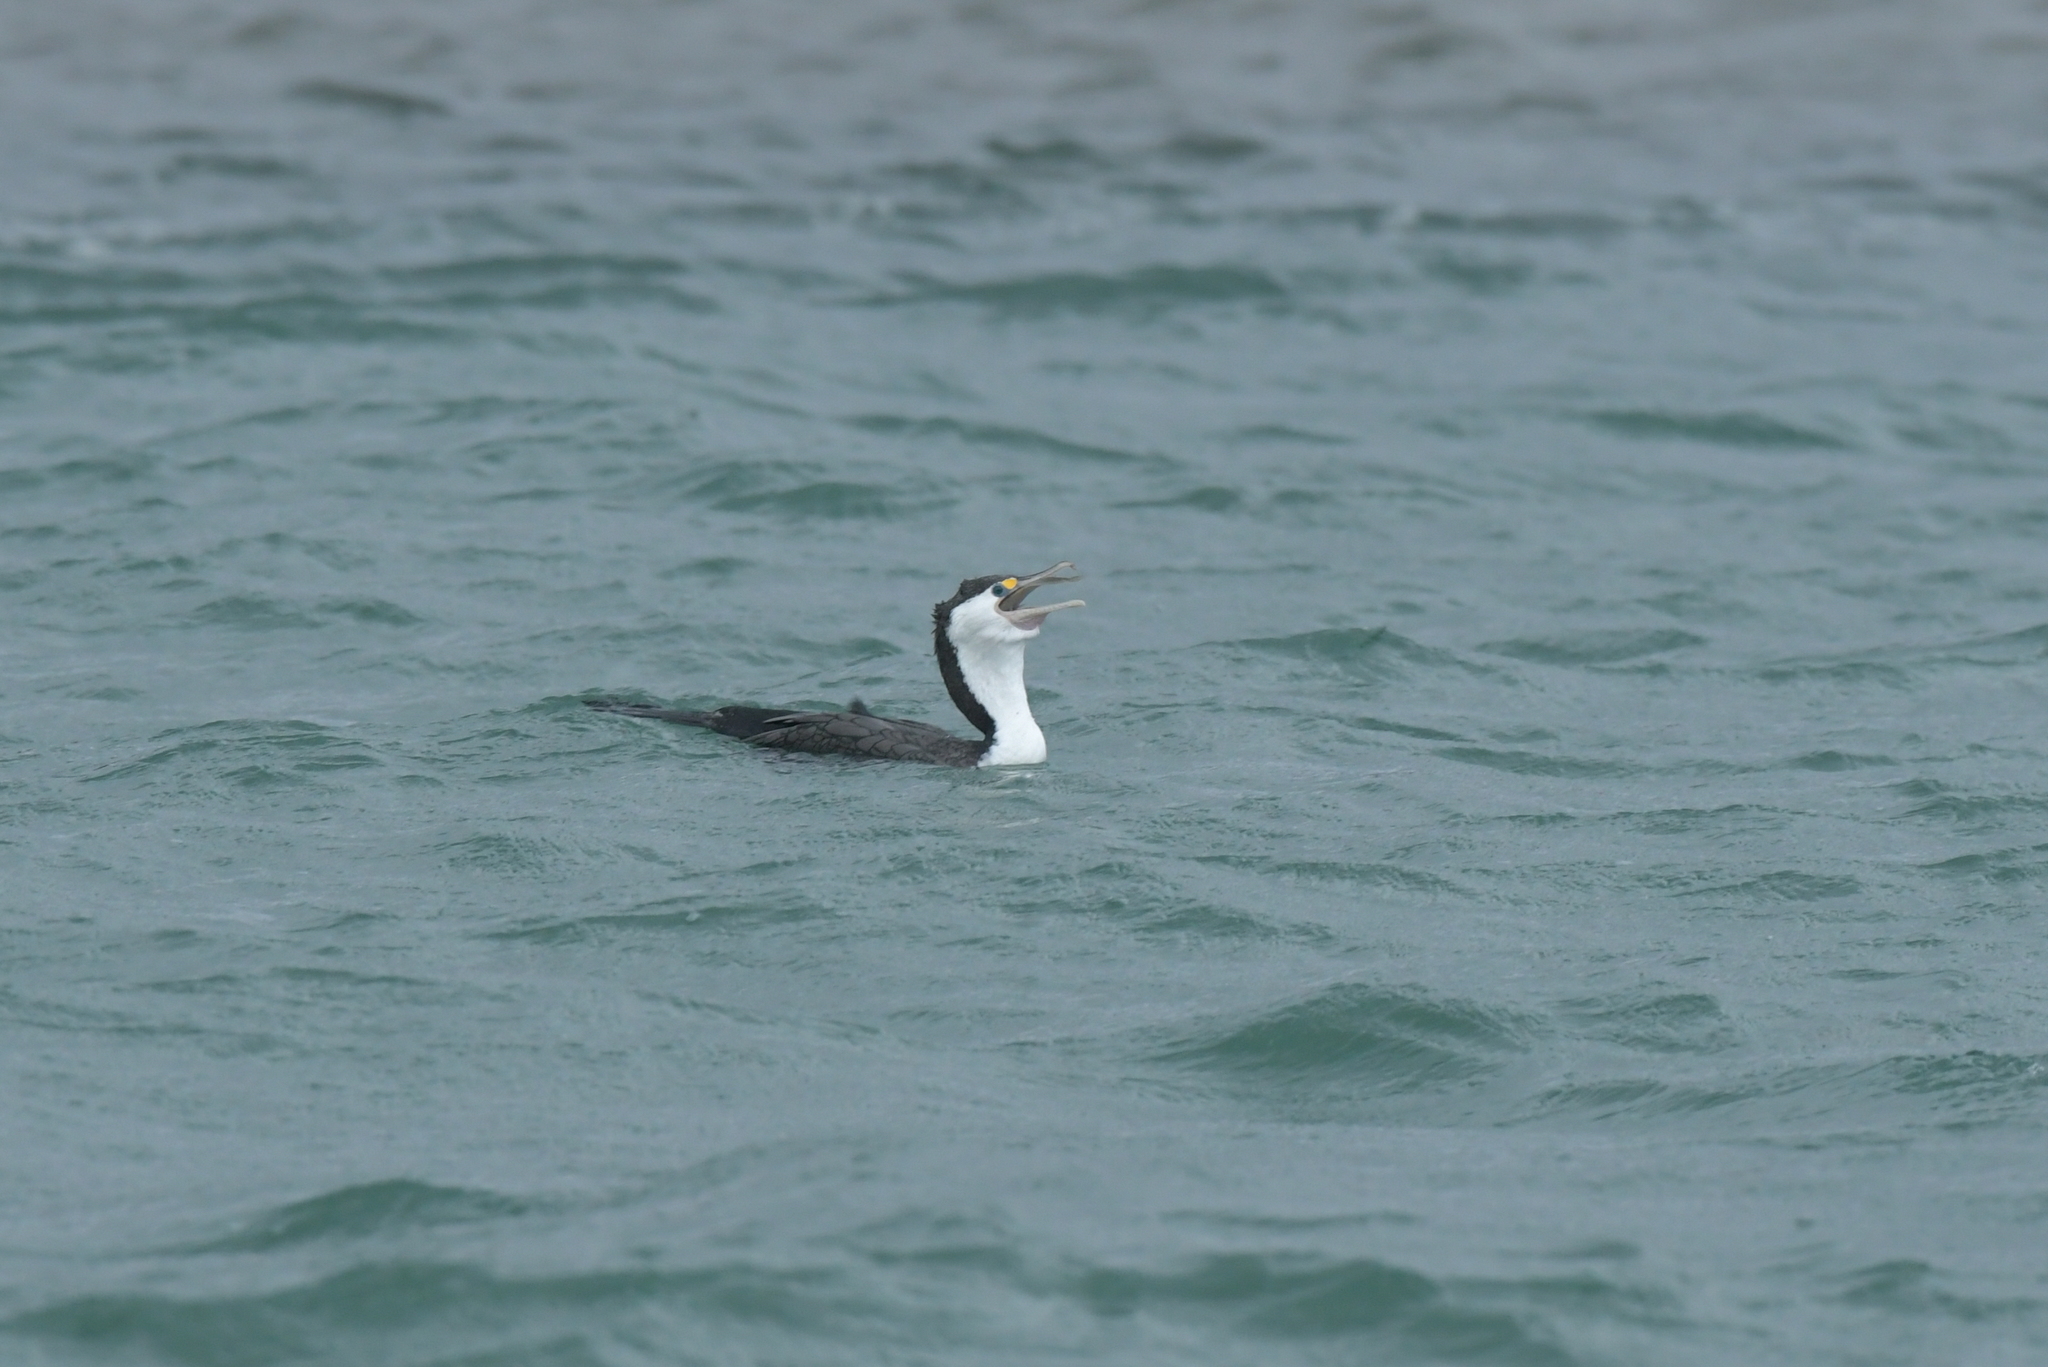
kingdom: Animalia
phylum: Chordata
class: Aves
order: Suliformes
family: Phalacrocoracidae
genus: Phalacrocorax
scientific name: Phalacrocorax varius
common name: Pied cormorant
